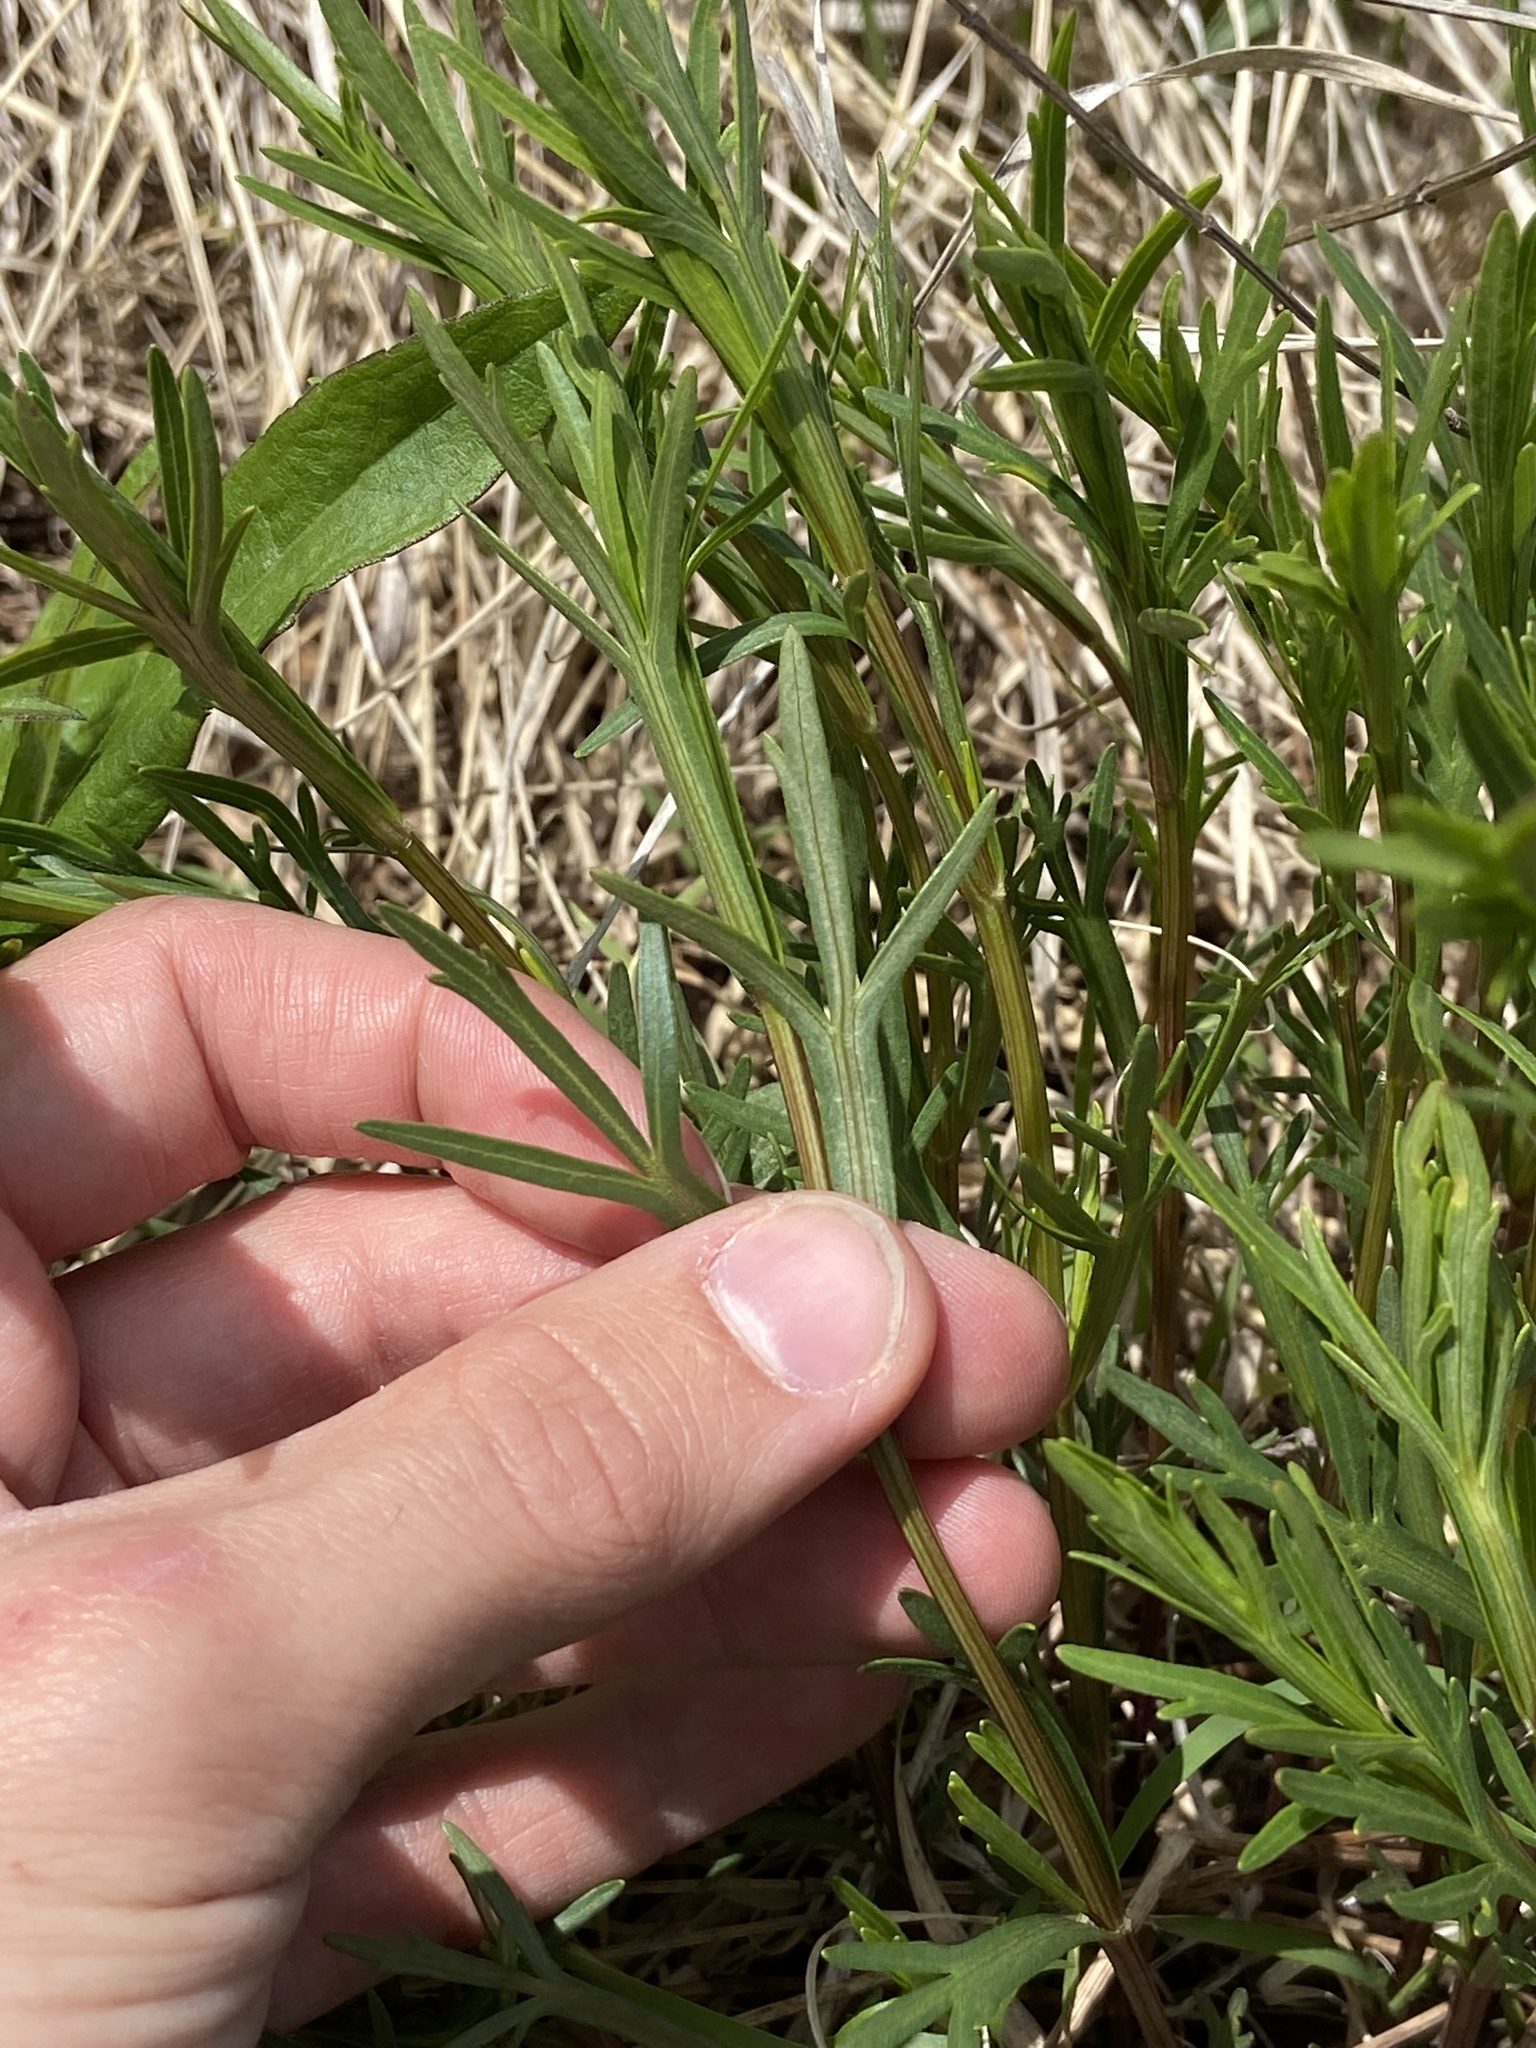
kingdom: Plantae
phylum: Tracheophyta
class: Magnoliopsida
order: Asterales
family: Asteraceae
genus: Coreopsis
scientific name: Coreopsis palmata
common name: Prairie coreopsis
